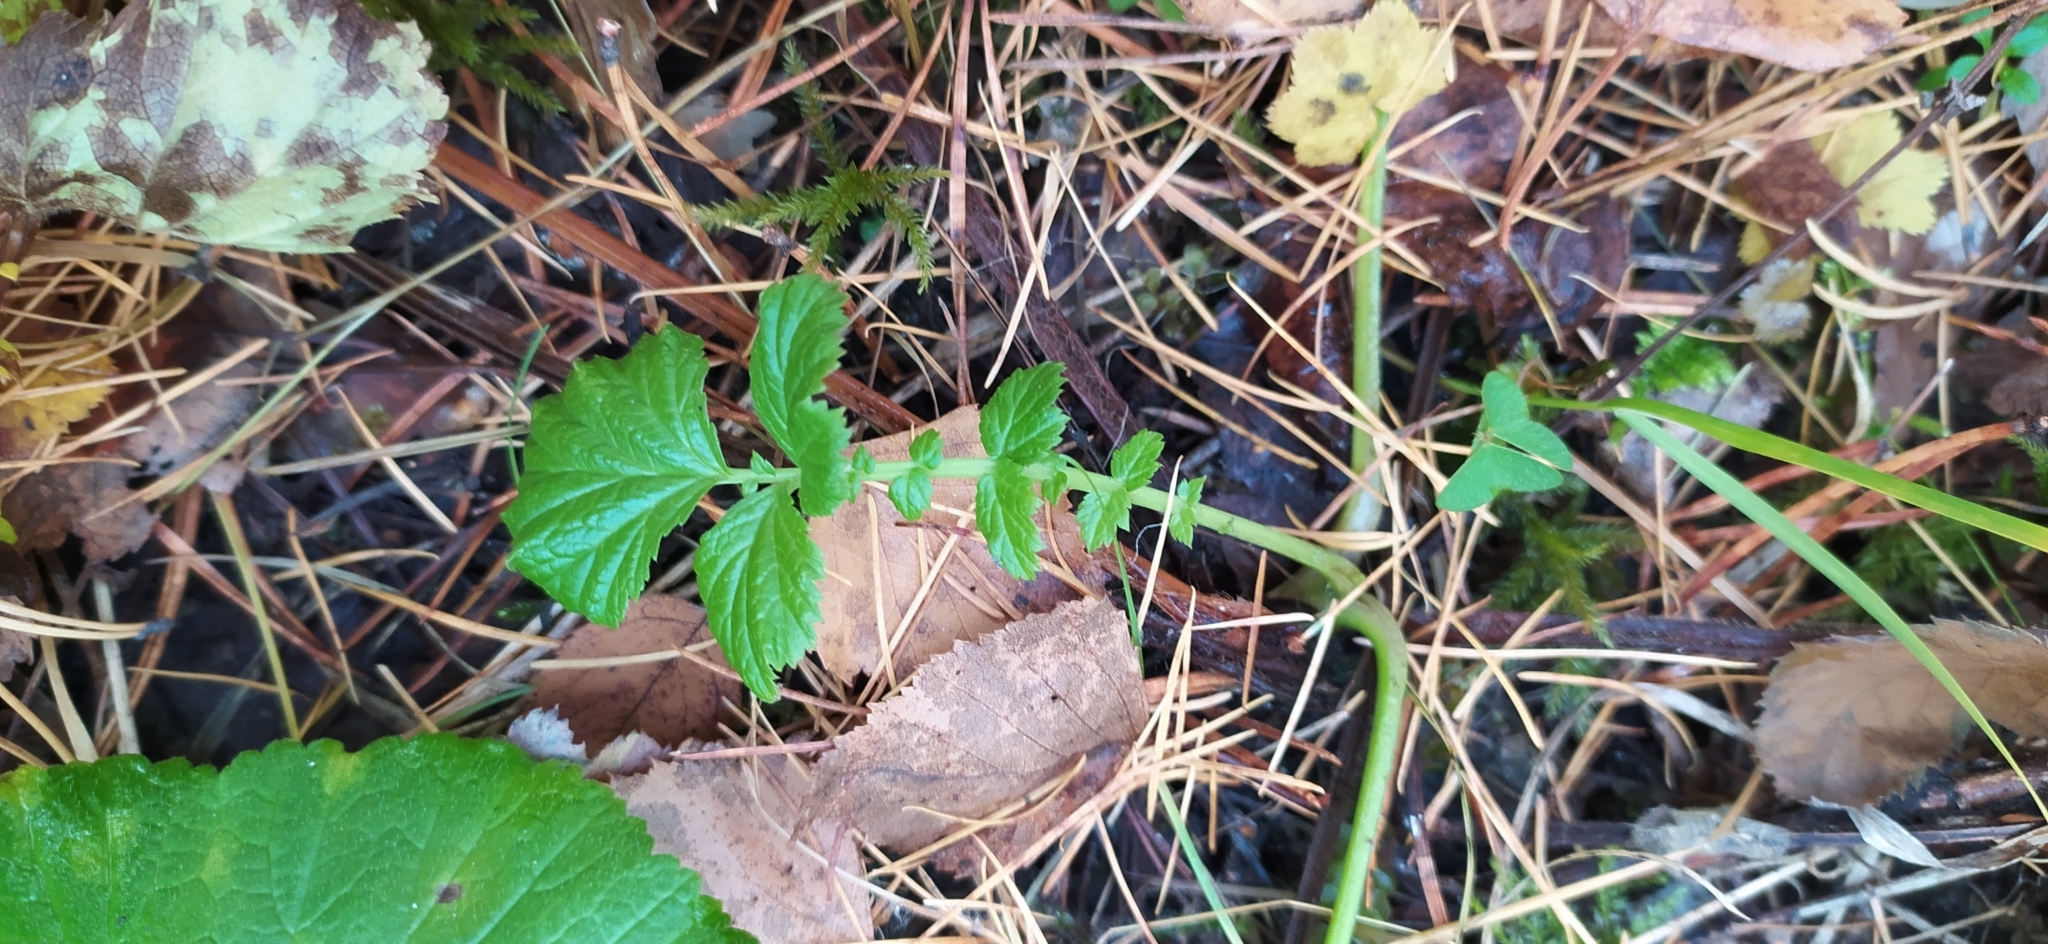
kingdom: Plantae
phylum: Tracheophyta
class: Magnoliopsida
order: Rosales
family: Rosaceae
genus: Geum
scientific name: Geum rivale
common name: Water avens
